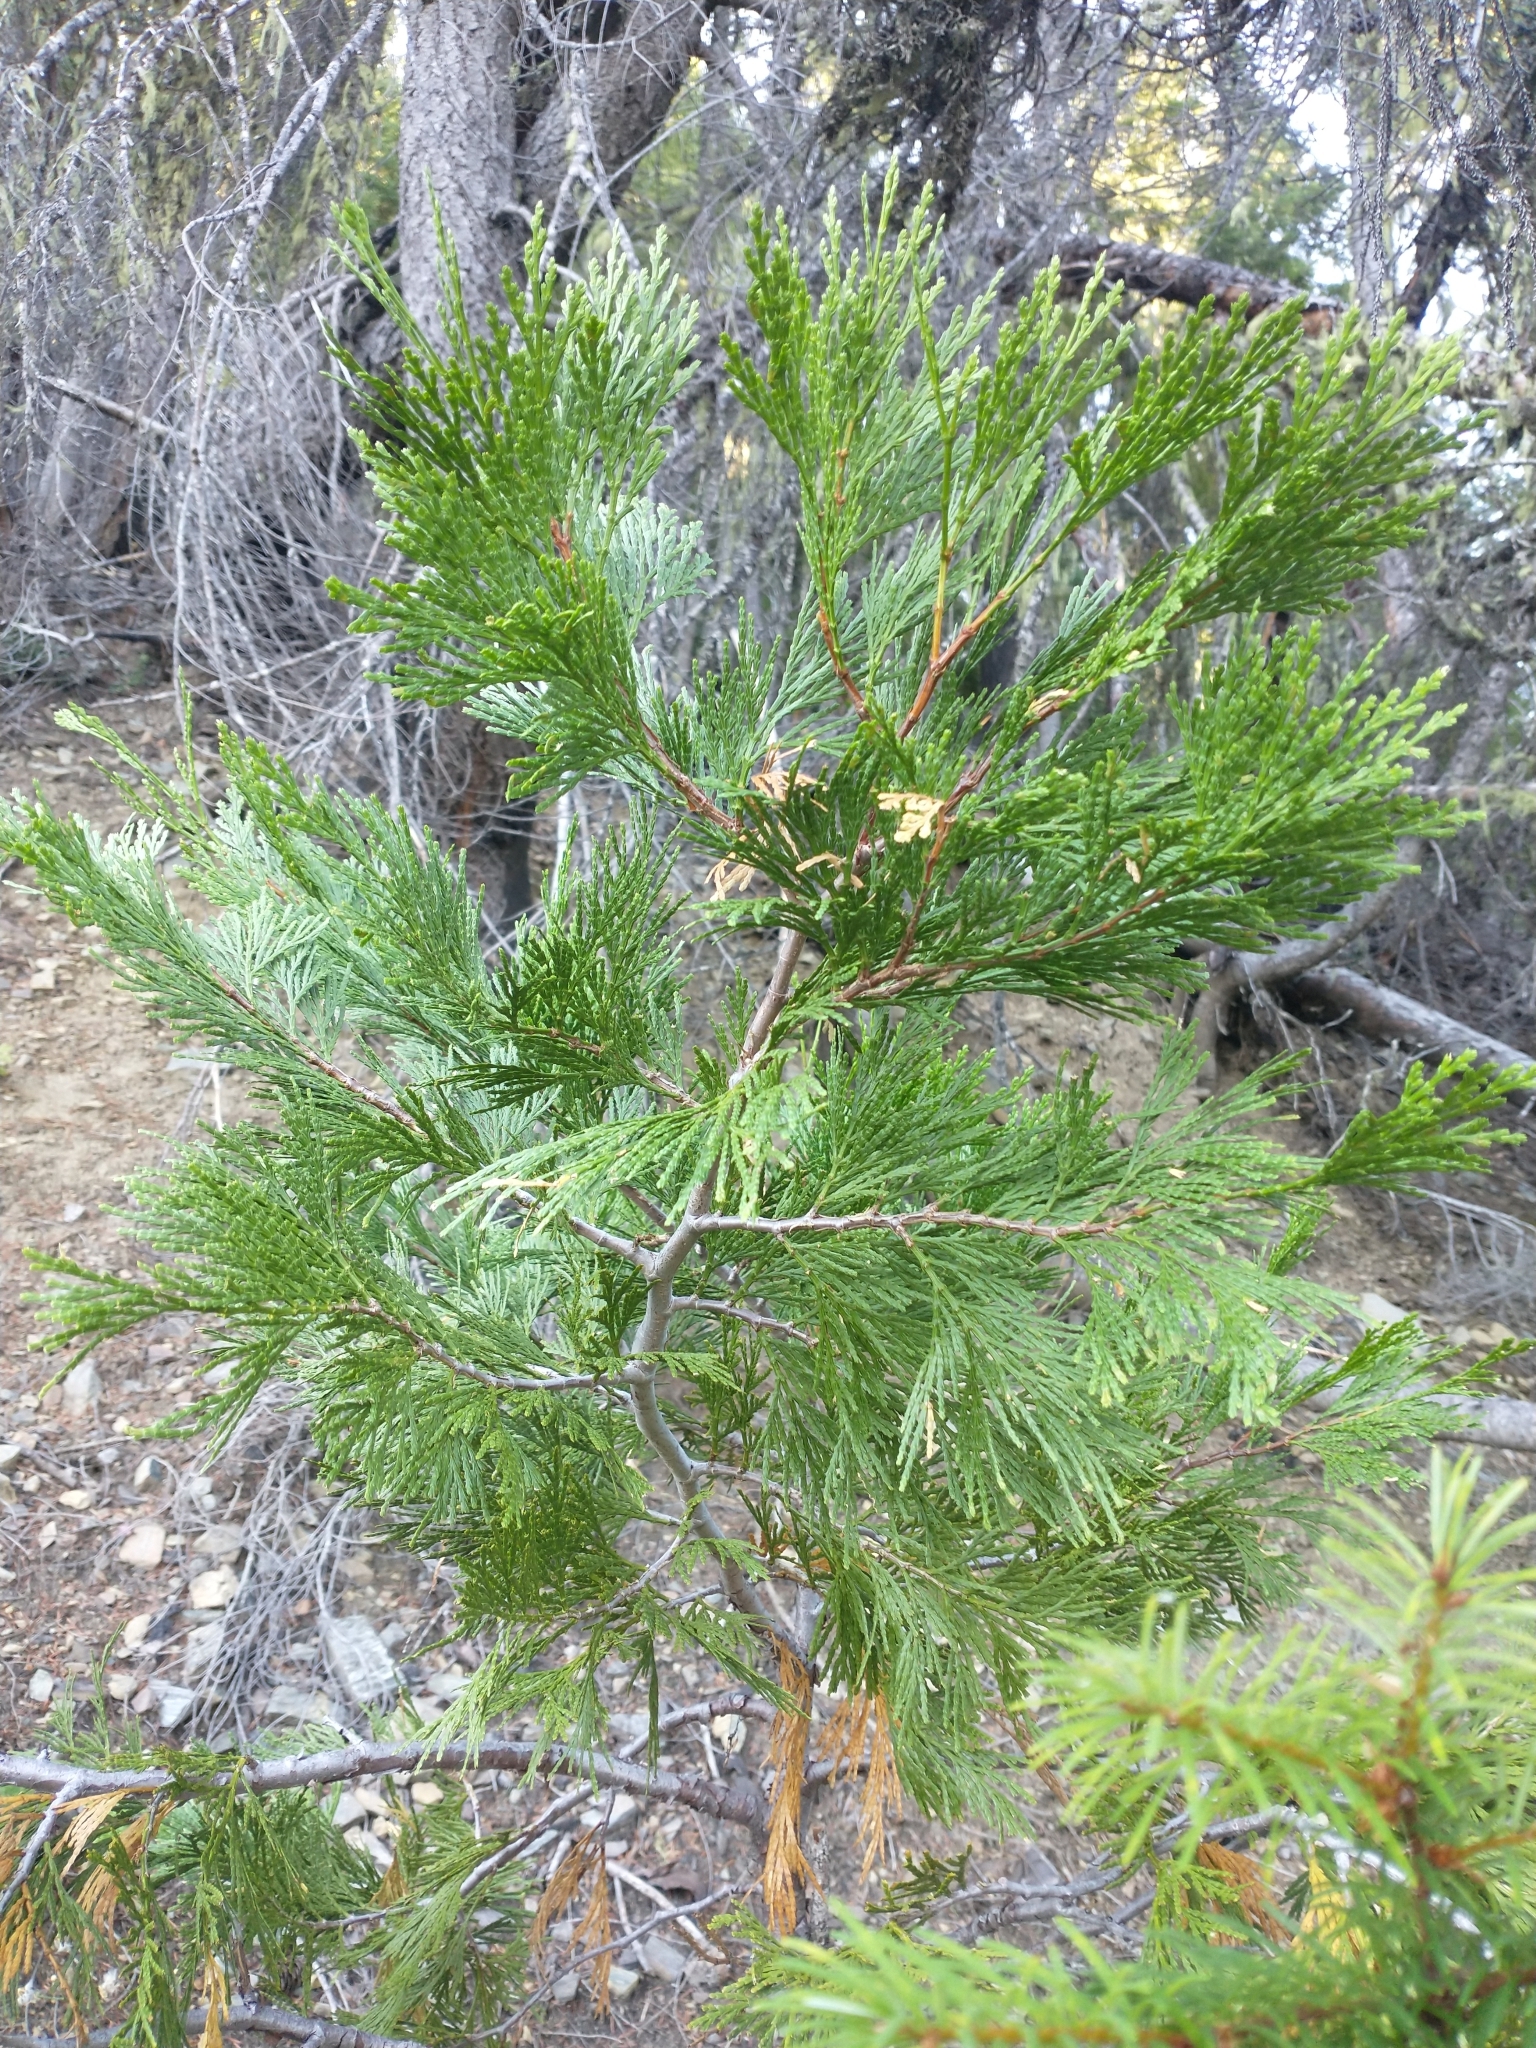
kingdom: Plantae
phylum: Tracheophyta
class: Pinopsida
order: Pinales
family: Cupressaceae
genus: Calocedrus
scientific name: Calocedrus decurrens
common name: Californian incense-cedar
